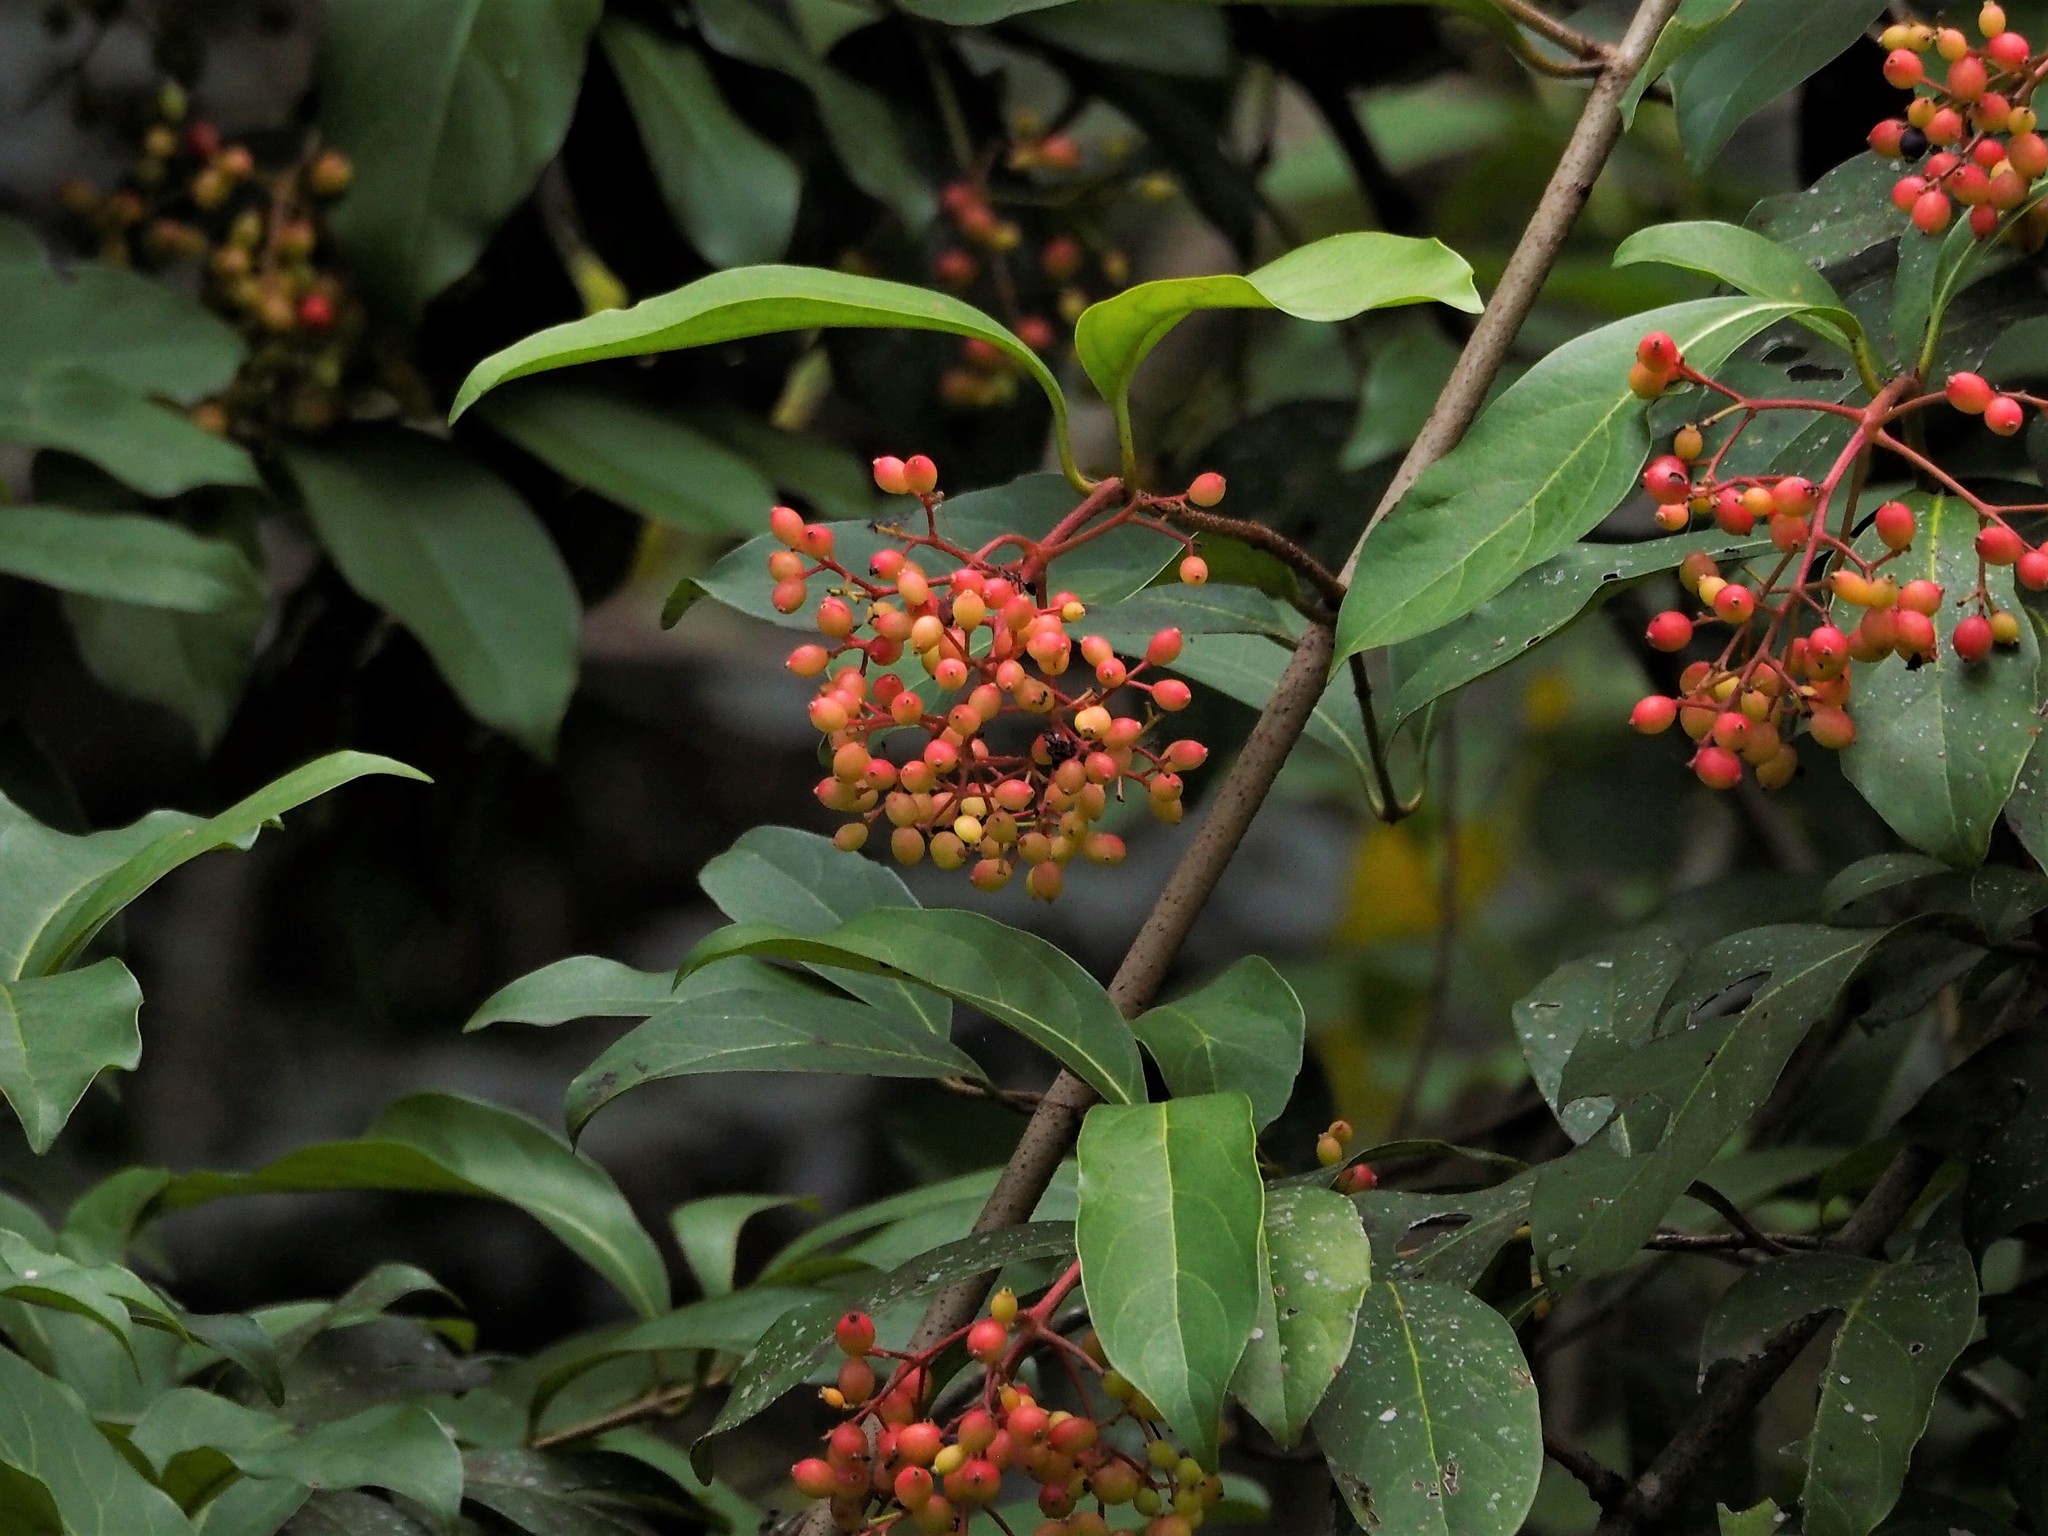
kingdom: Plantae
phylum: Tracheophyta
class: Magnoliopsida
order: Dipsacales
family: Viburnaceae
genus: Viburnum
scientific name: Viburnum odoratissimum
